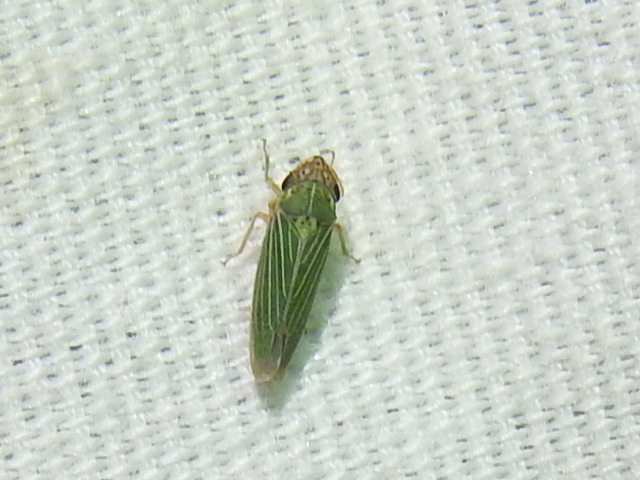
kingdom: Animalia
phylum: Arthropoda
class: Insecta
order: Hemiptera
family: Cicadellidae
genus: Xyphon
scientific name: Xyphon reticulatum
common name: Planthopper
